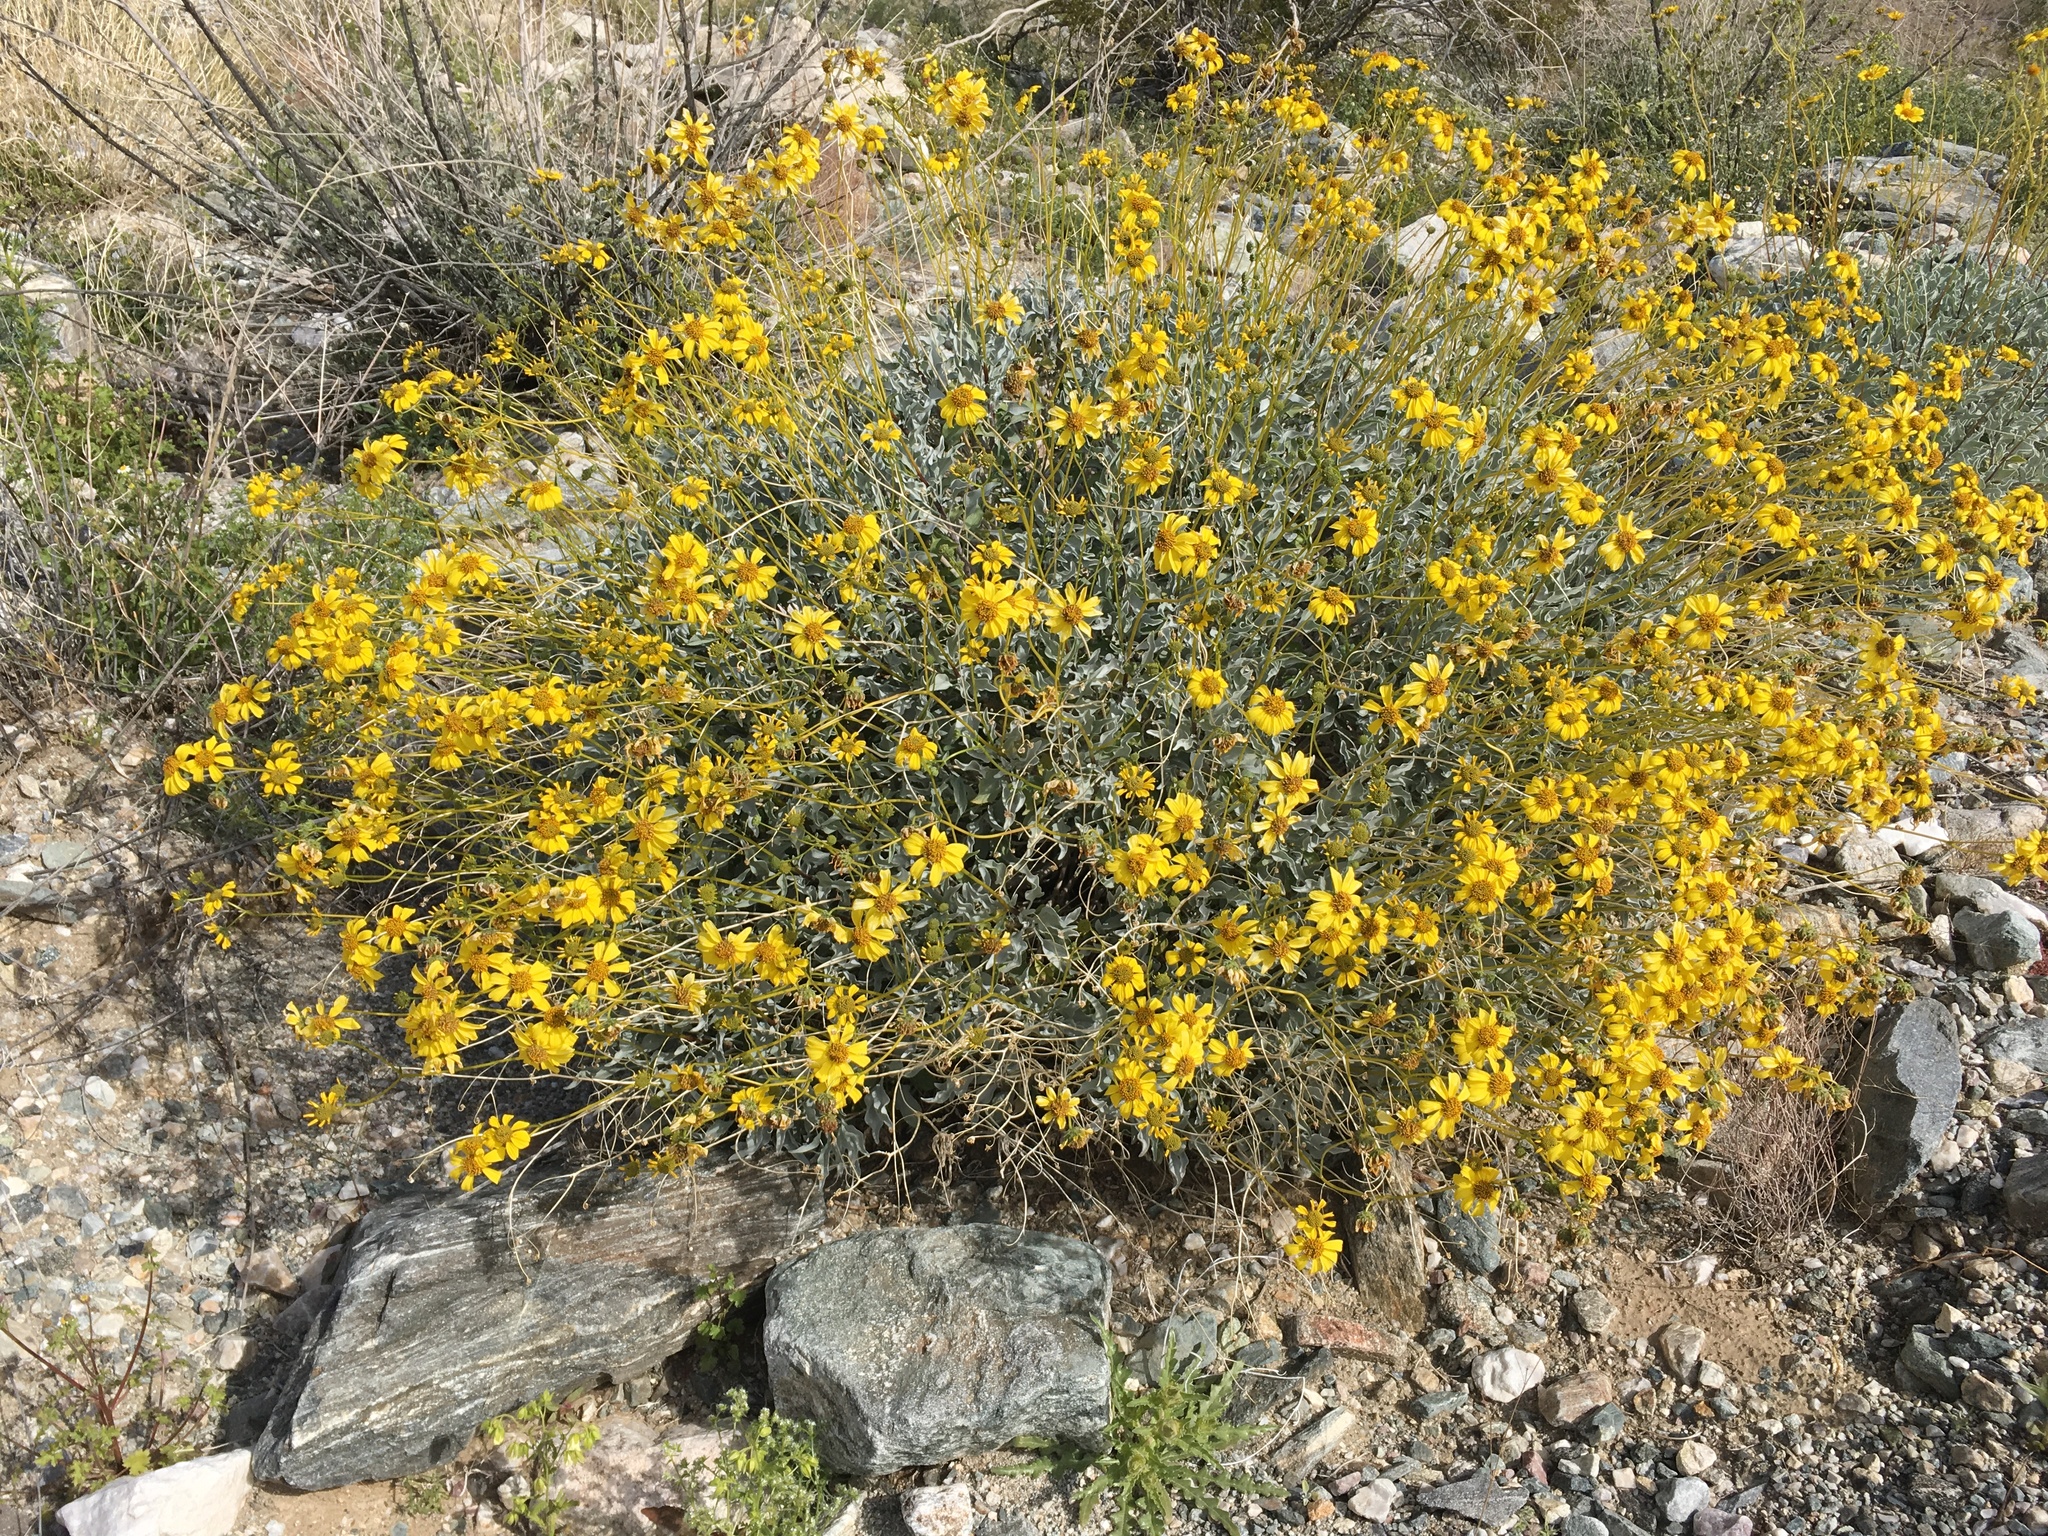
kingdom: Plantae
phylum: Tracheophyta
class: Magnoliopsida
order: Asterales
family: Asteraceae
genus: Encelia
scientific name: Encelia farinosa
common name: Brittlebush
